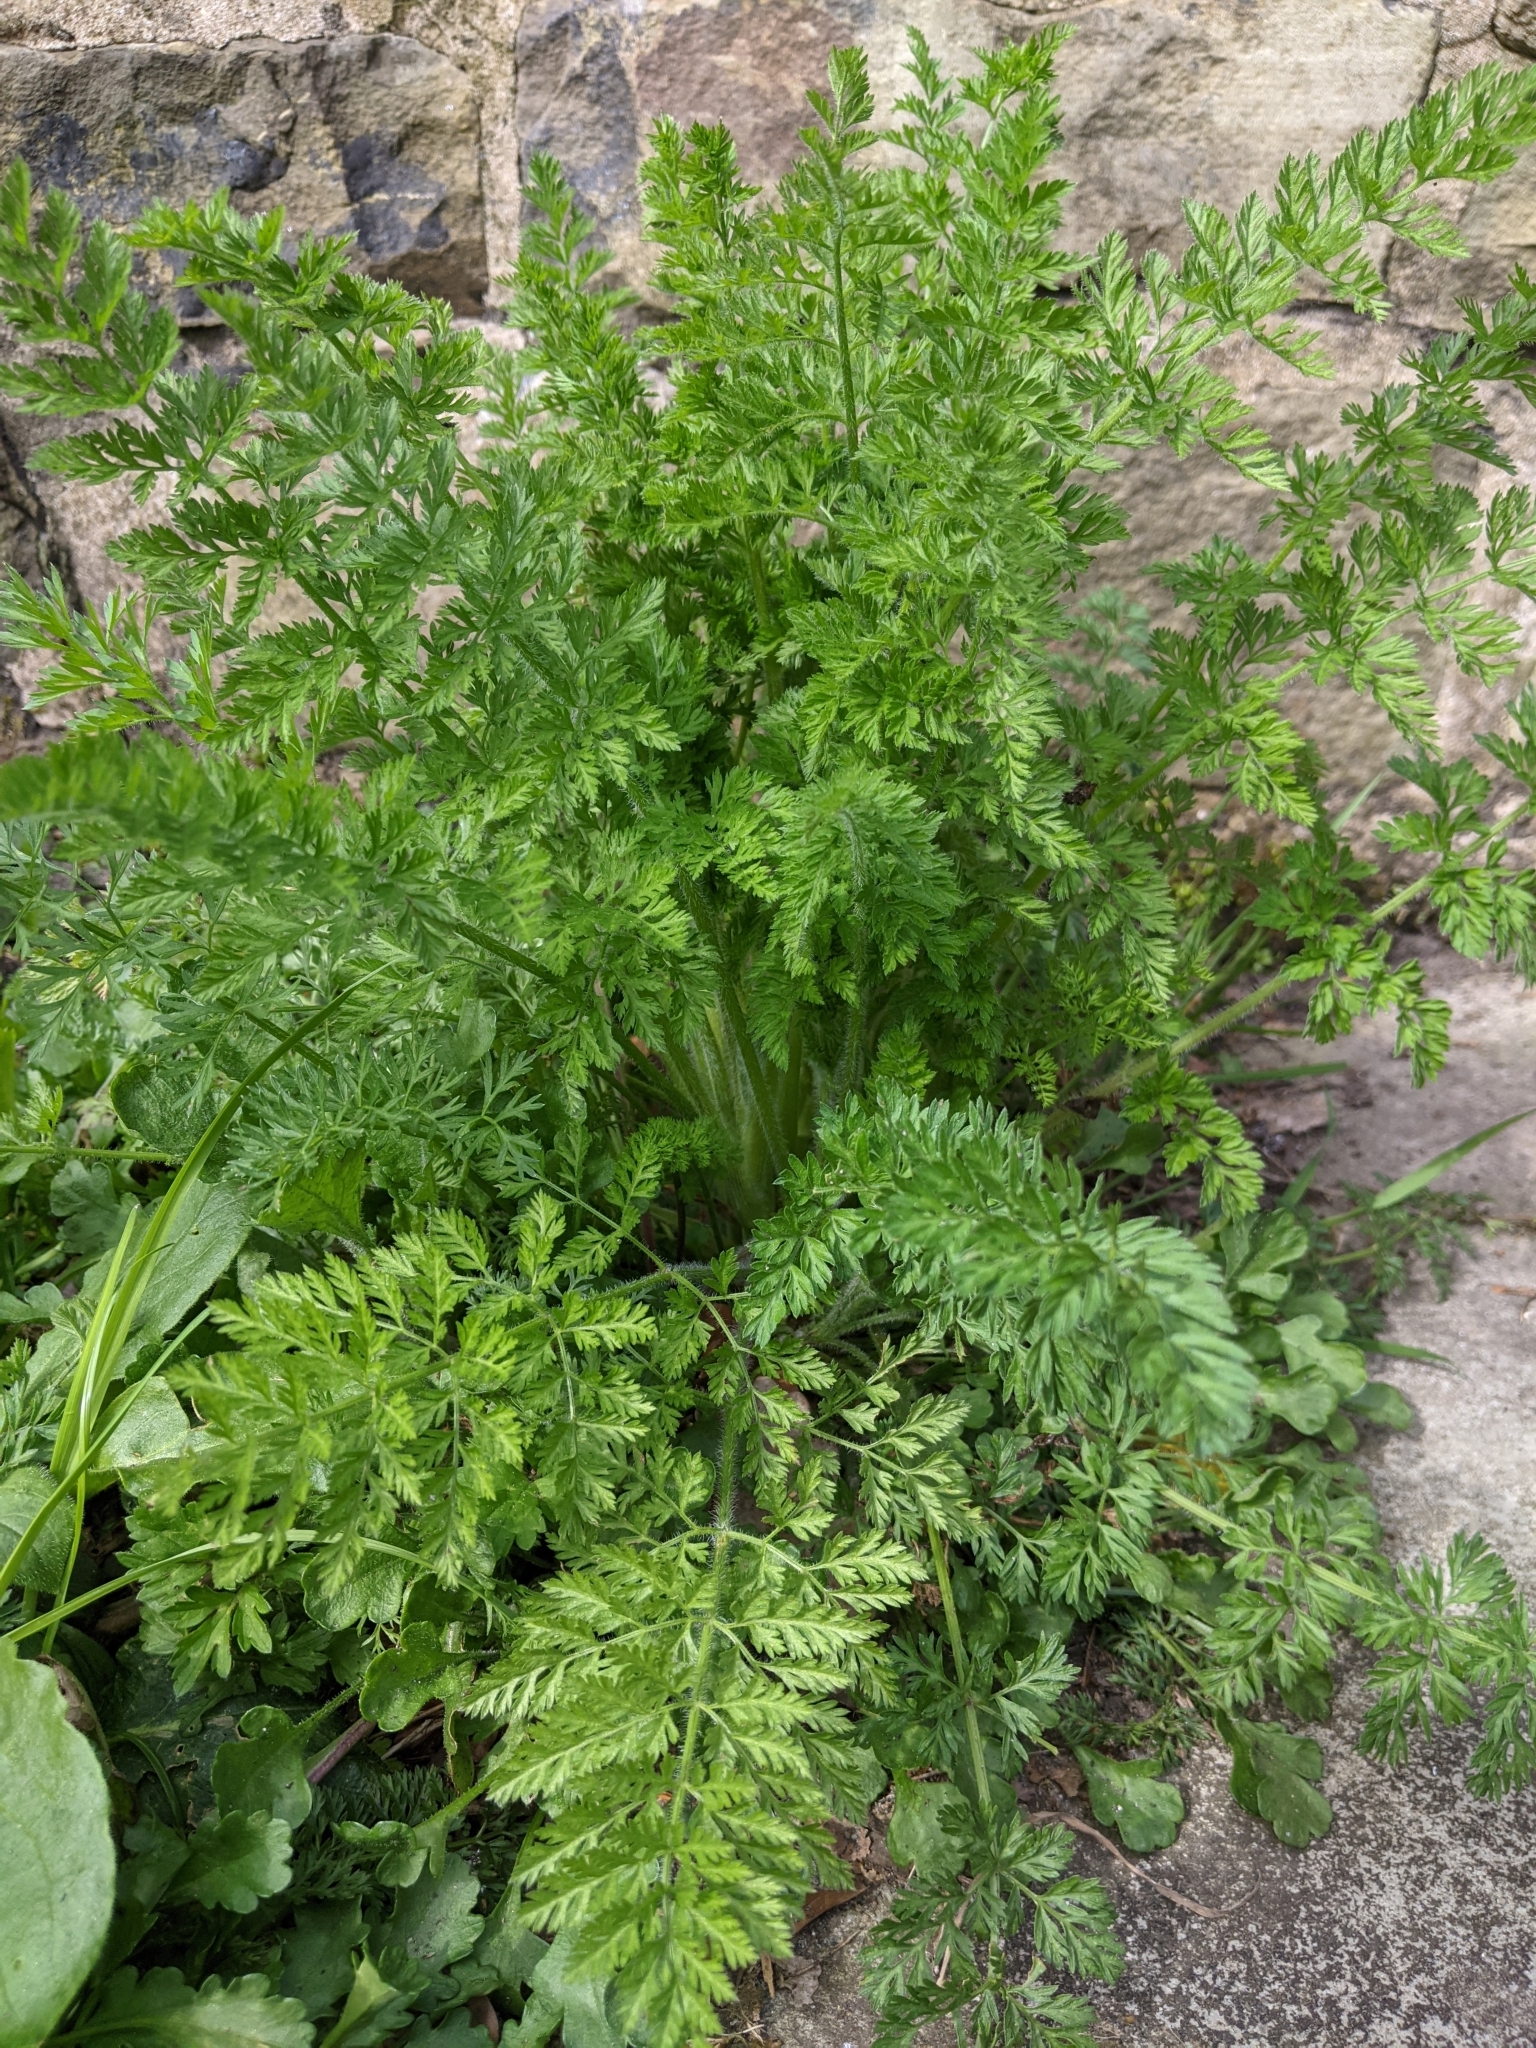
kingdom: Plantae
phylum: Tracheophyta
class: Magnoliopsida
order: Apiales
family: Apiaceae
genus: Daucus
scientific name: Daucus carota
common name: Wild carrot
